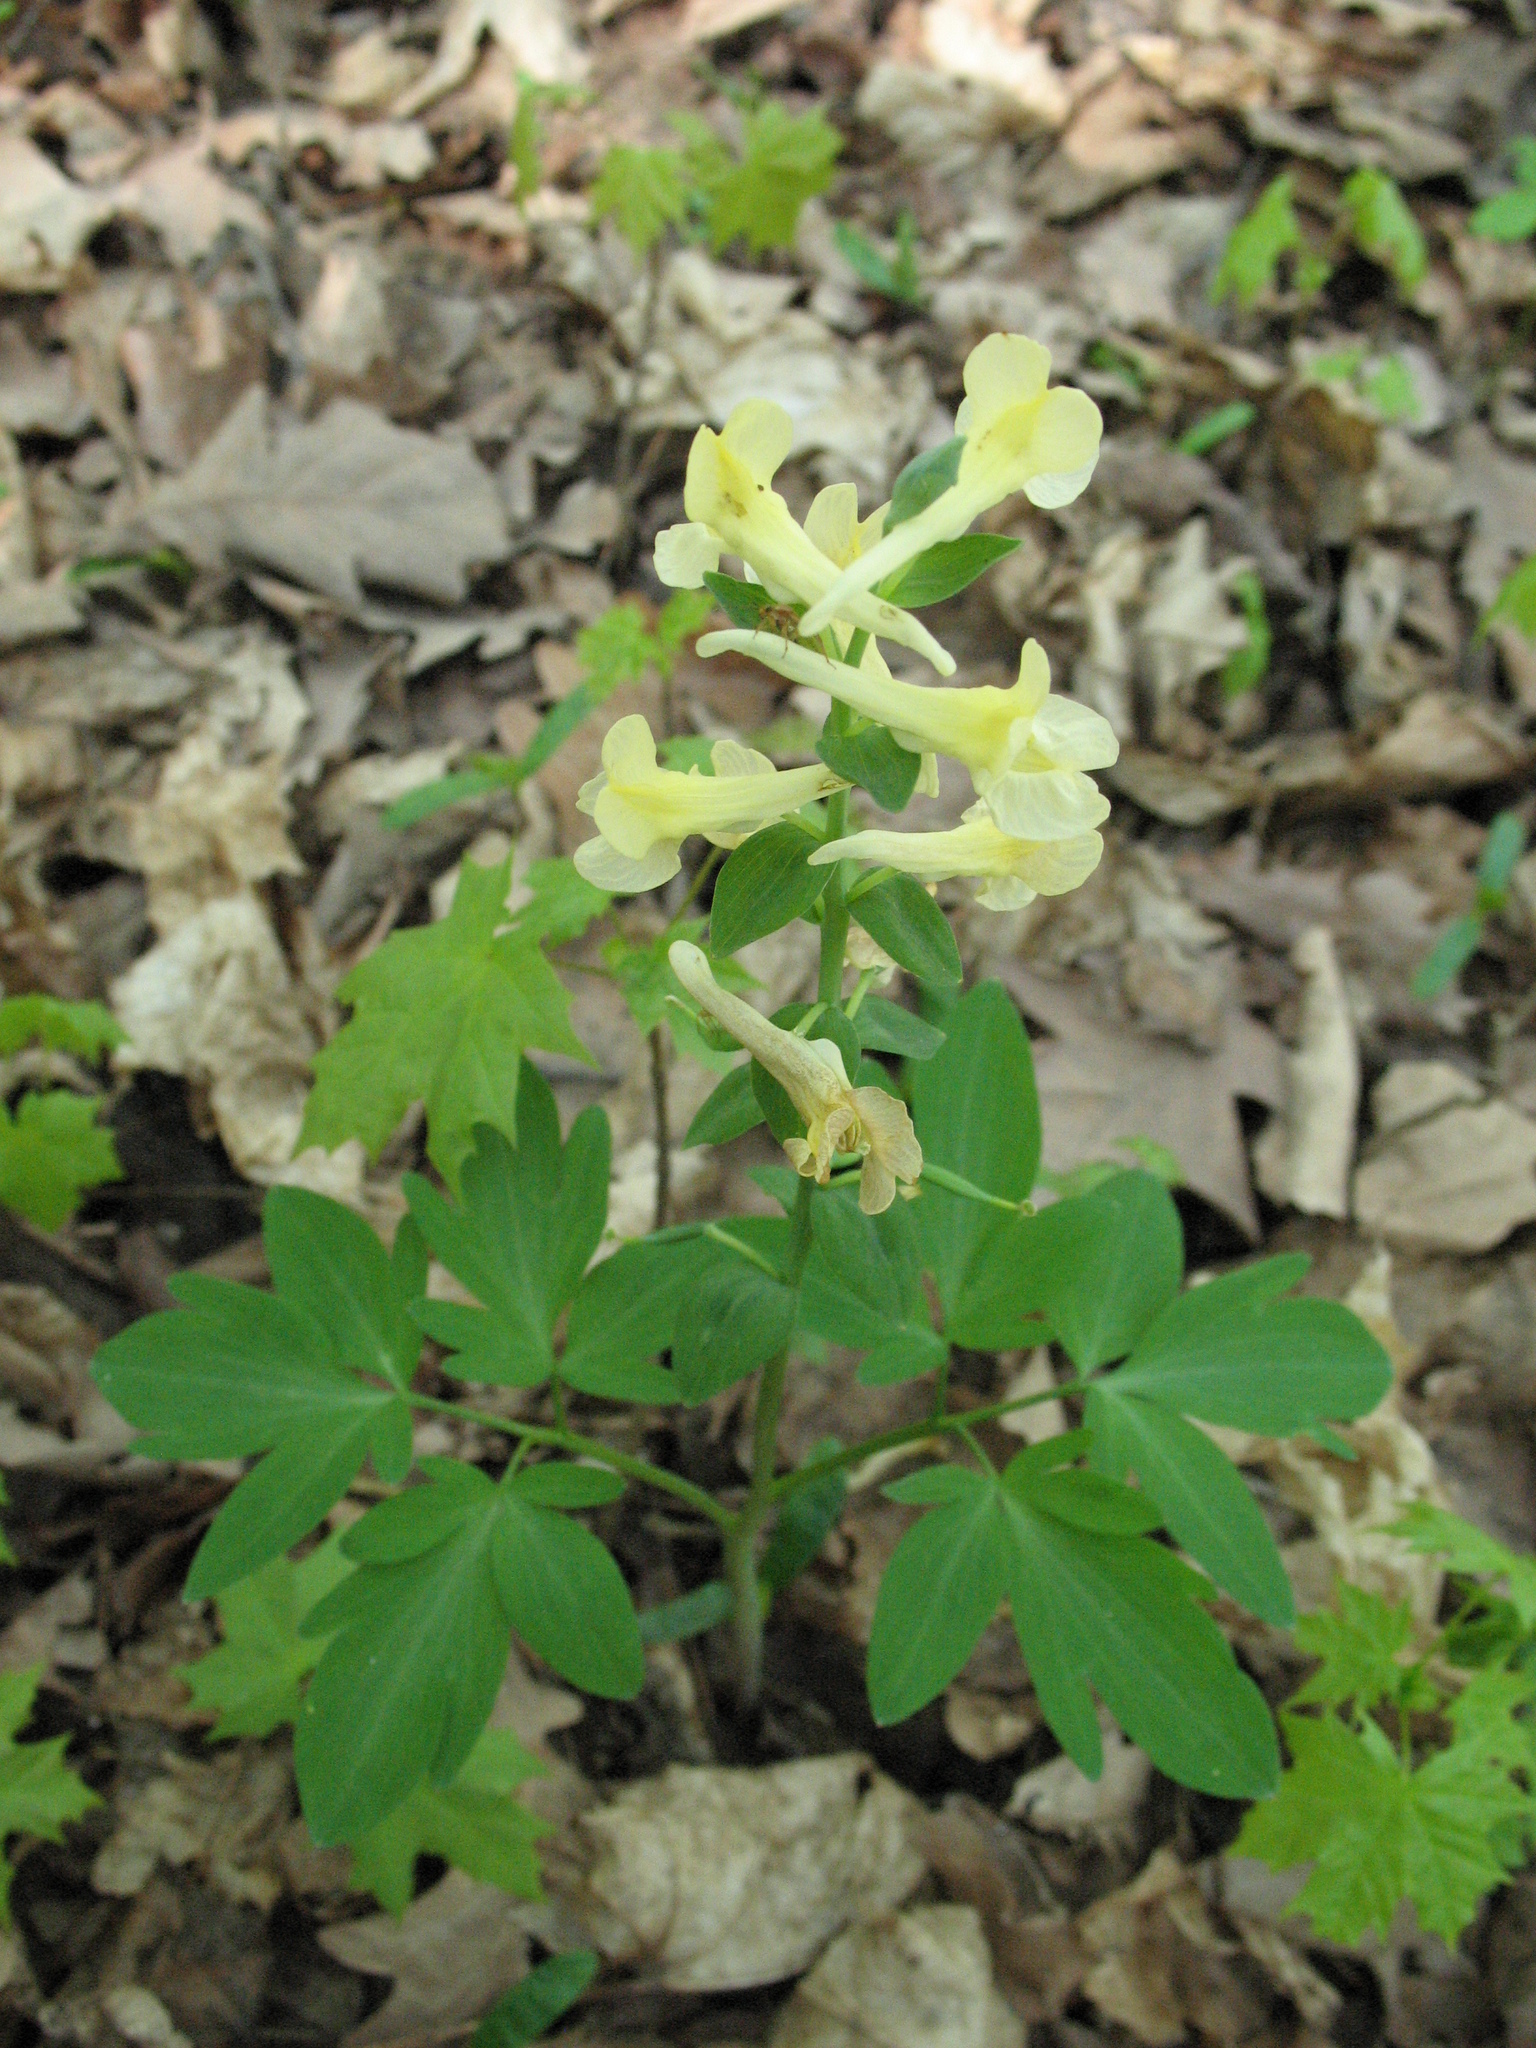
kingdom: Plantae
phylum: Tracheophyta
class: Magnoliopsida
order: Ranunculales
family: Papaveraceae
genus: Corydalis
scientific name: Corydalis cava
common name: Hollowroot
